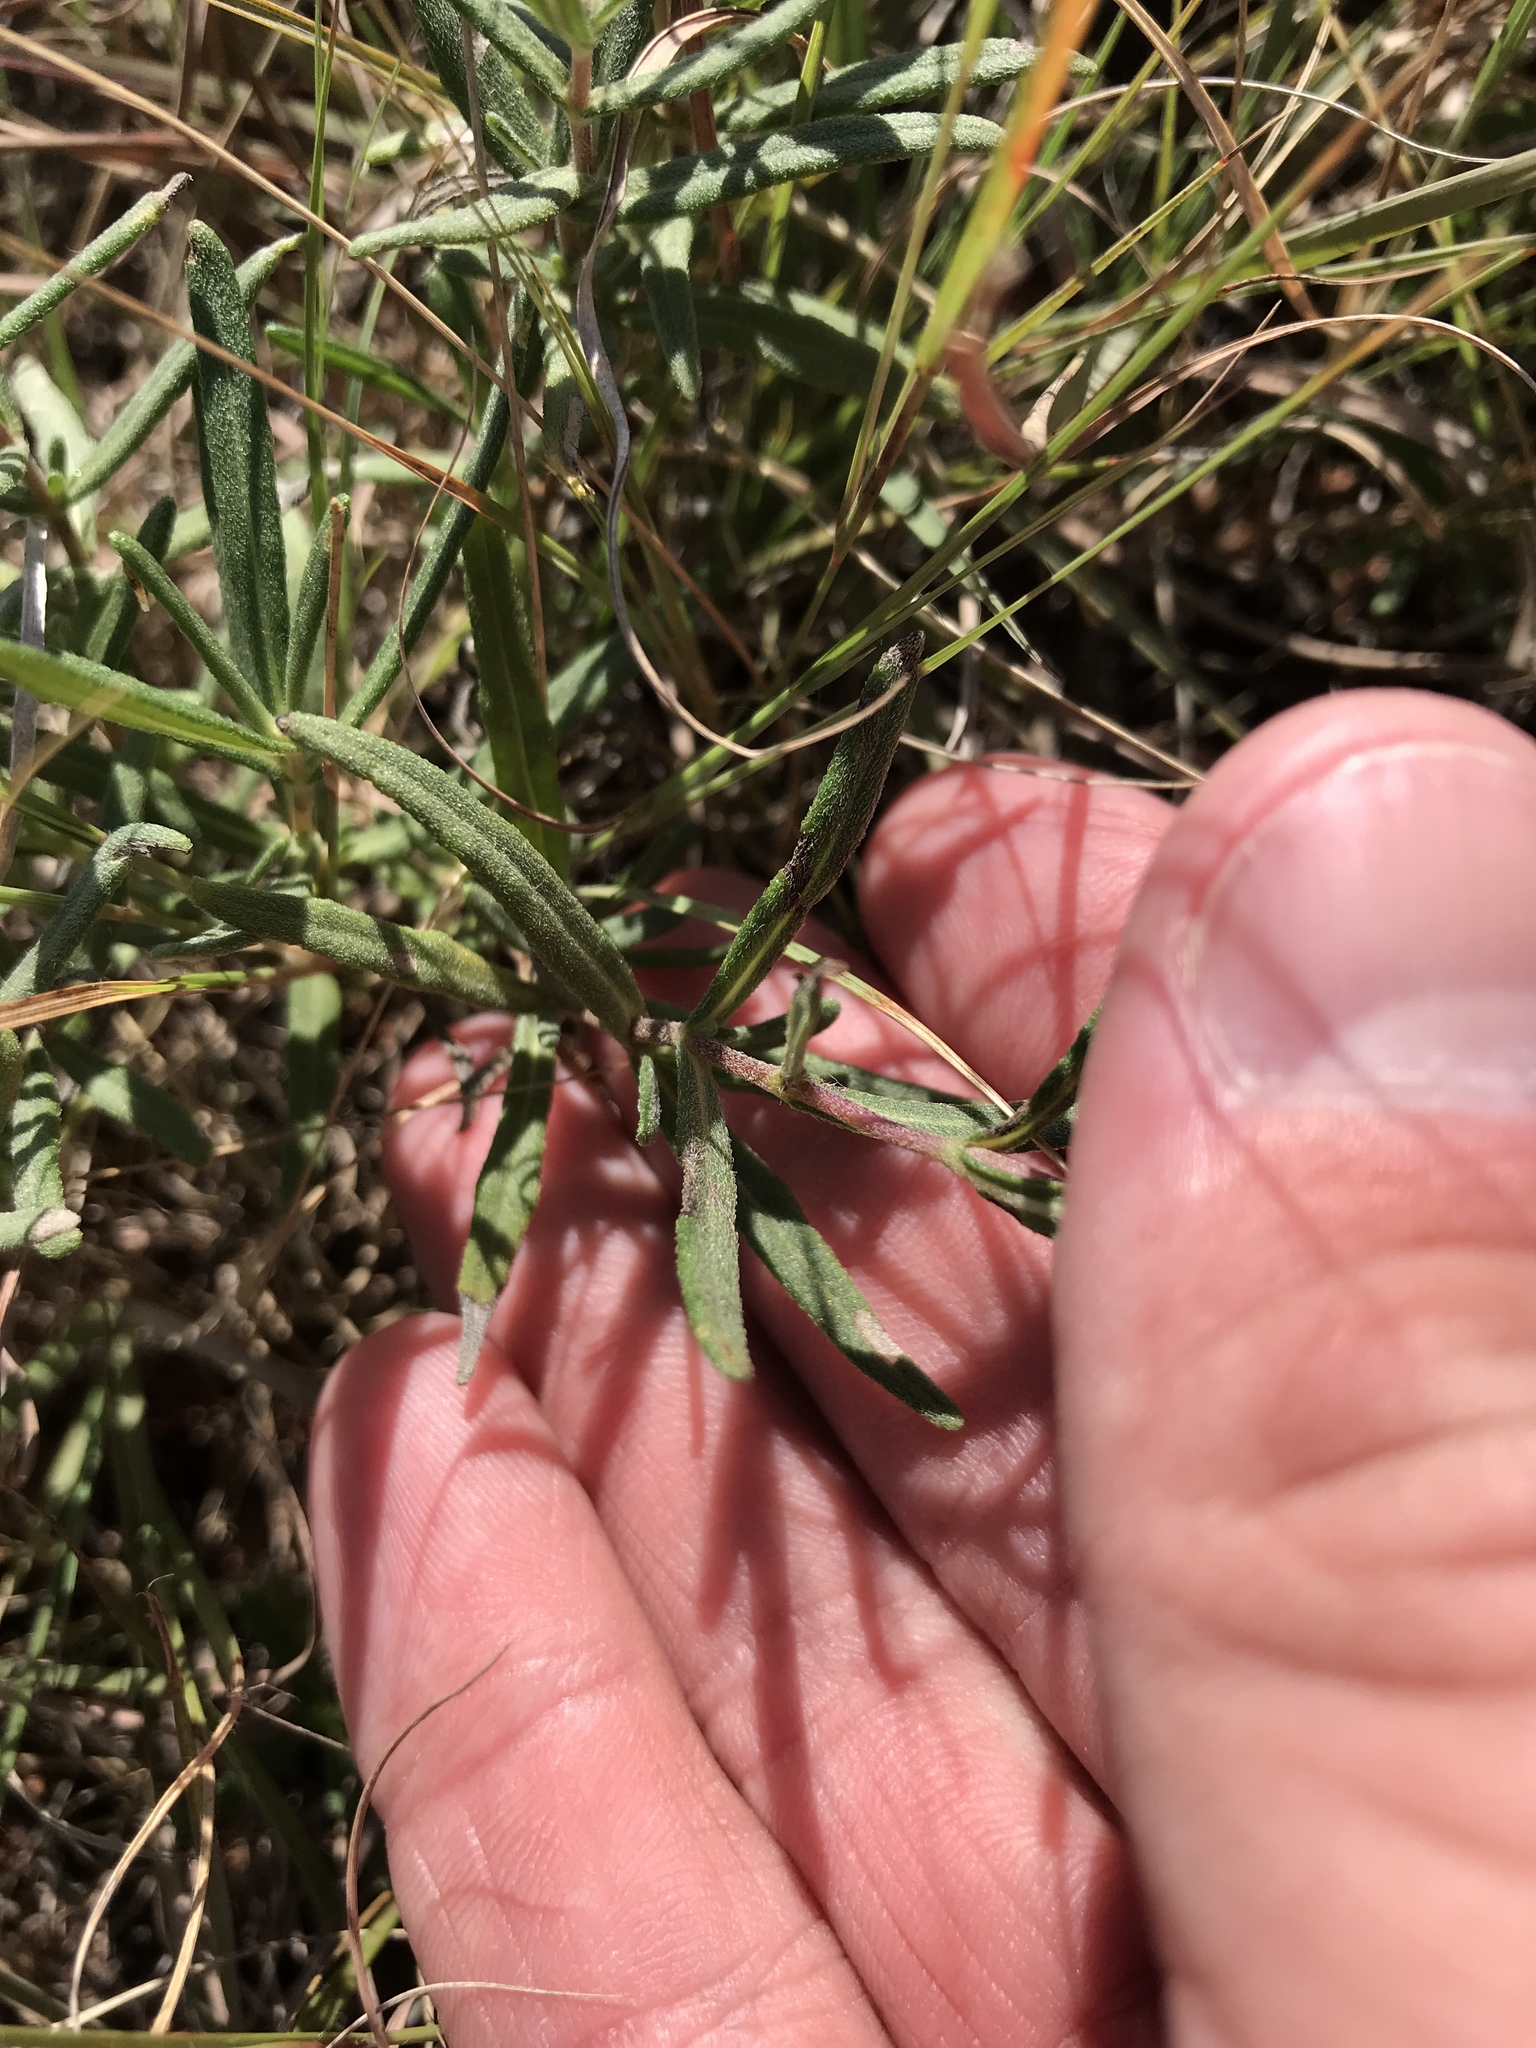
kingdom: Plantae
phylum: Tracheophyta
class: Magnoliopsida
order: Asterales
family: Asteraceae
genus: Melampodium
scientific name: Melampodium leucanthum
